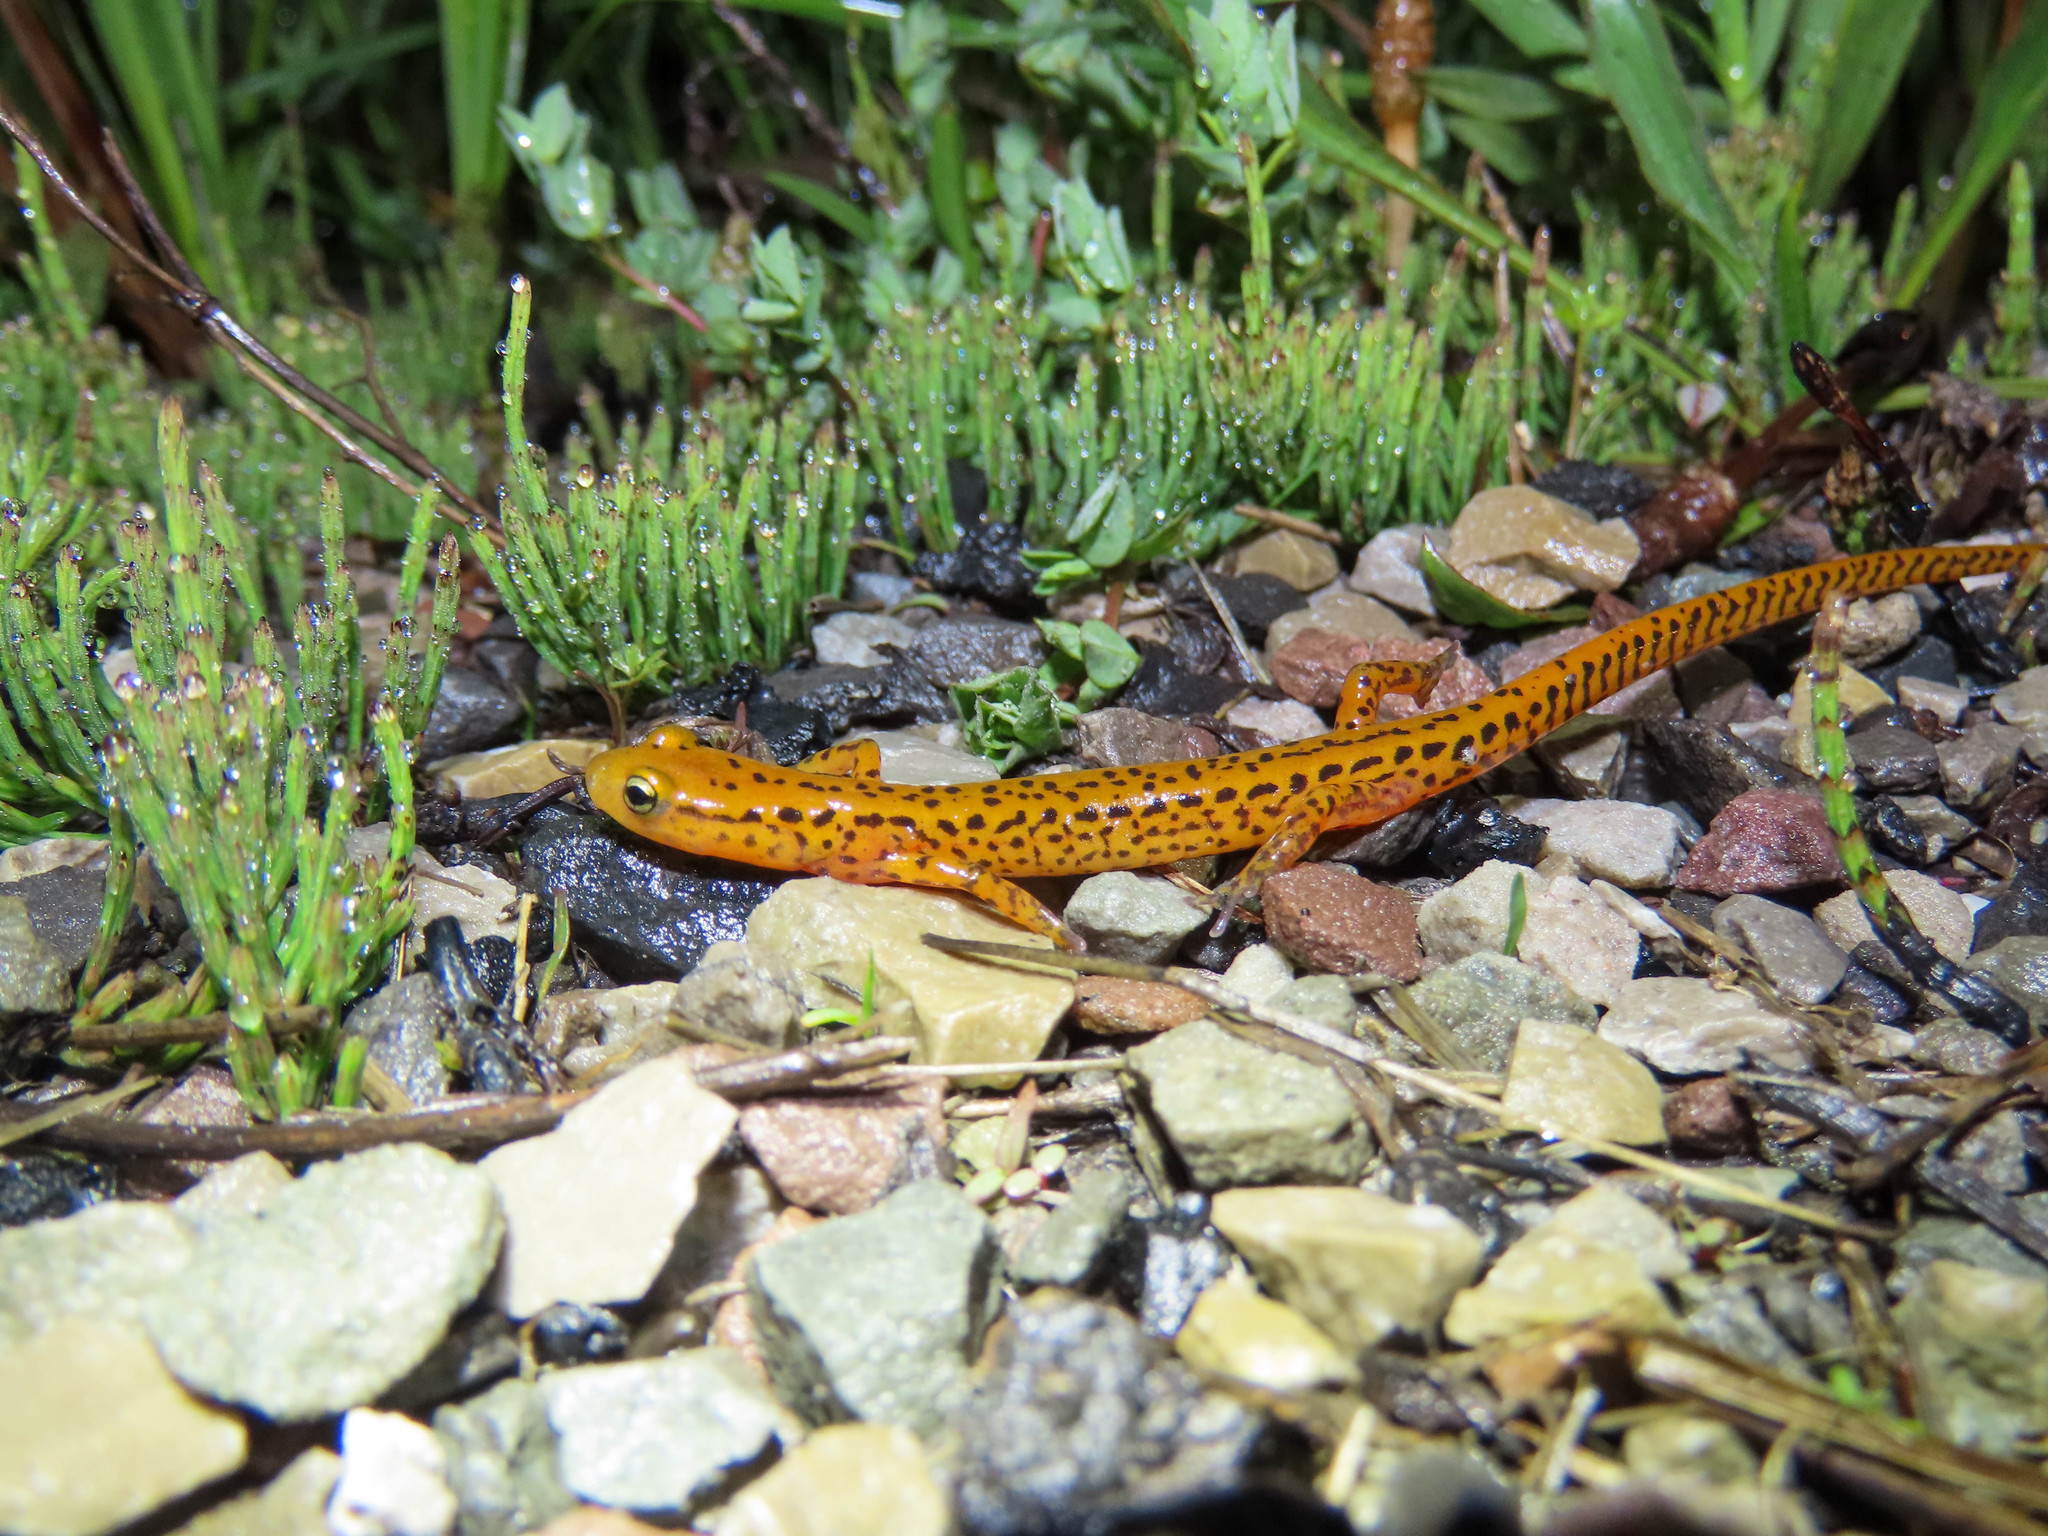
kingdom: Animalia
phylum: Chordata
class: Amphibia
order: Caudata
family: Plethodontidae
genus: Eurycea
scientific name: Eurycea longicauda
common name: Long-tailed salamander
